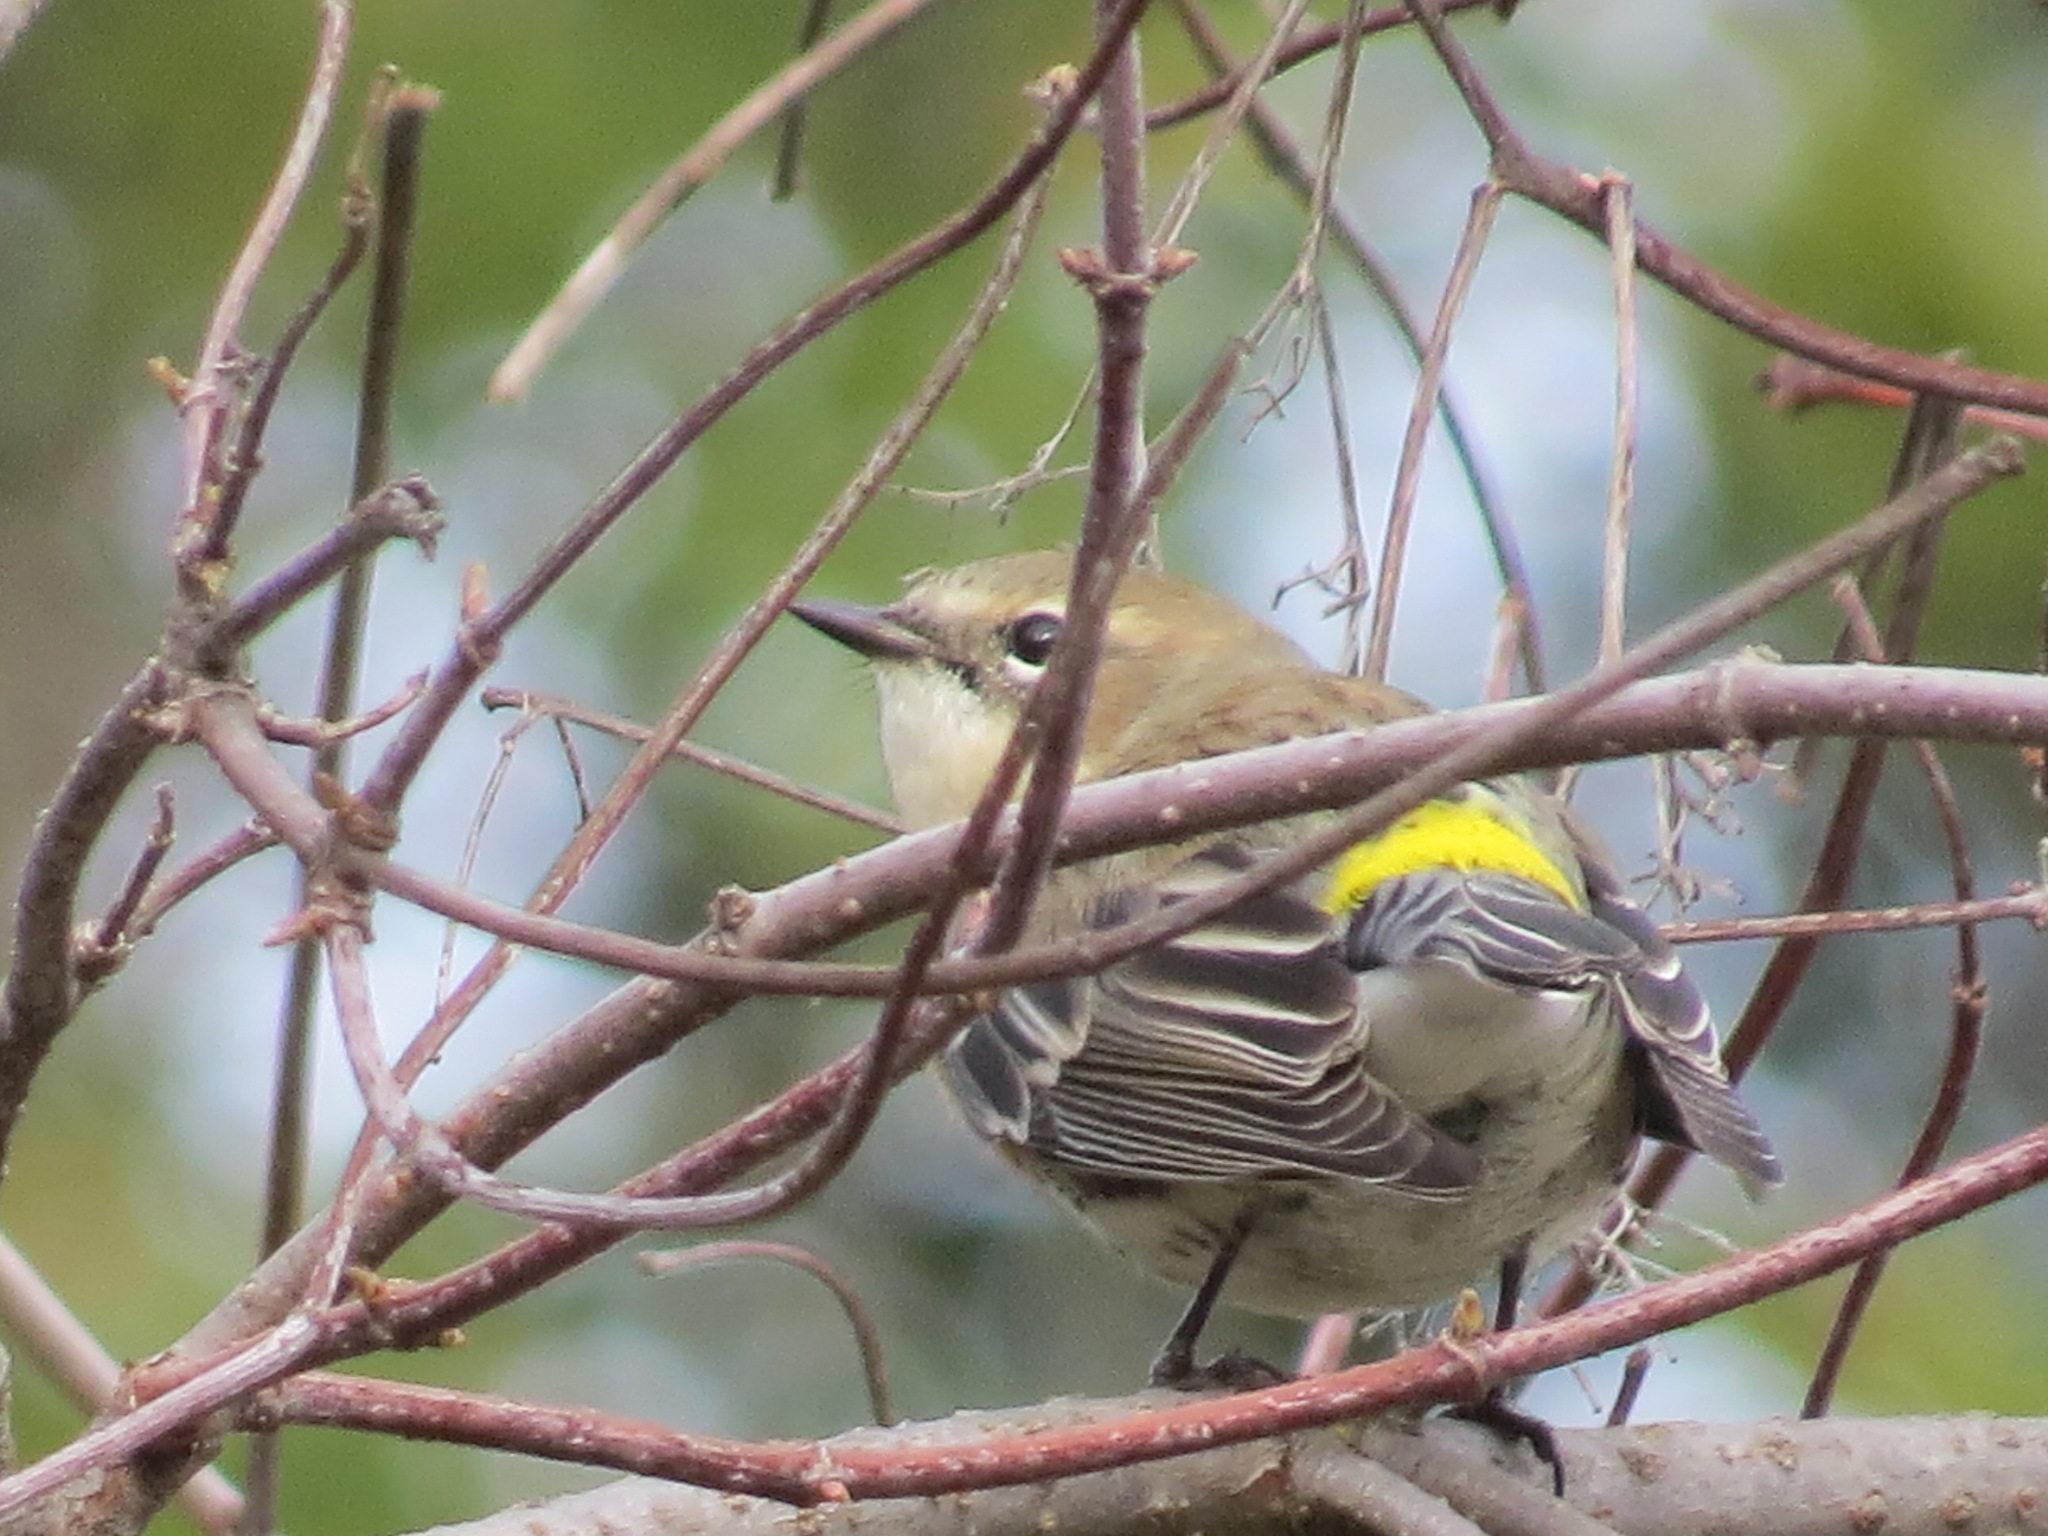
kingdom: Animalia
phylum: Chordata
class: Aves
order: Passeriformes
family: Parulidae
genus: Setophaga
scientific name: Setophaga coronata
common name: Myrtle warbler
